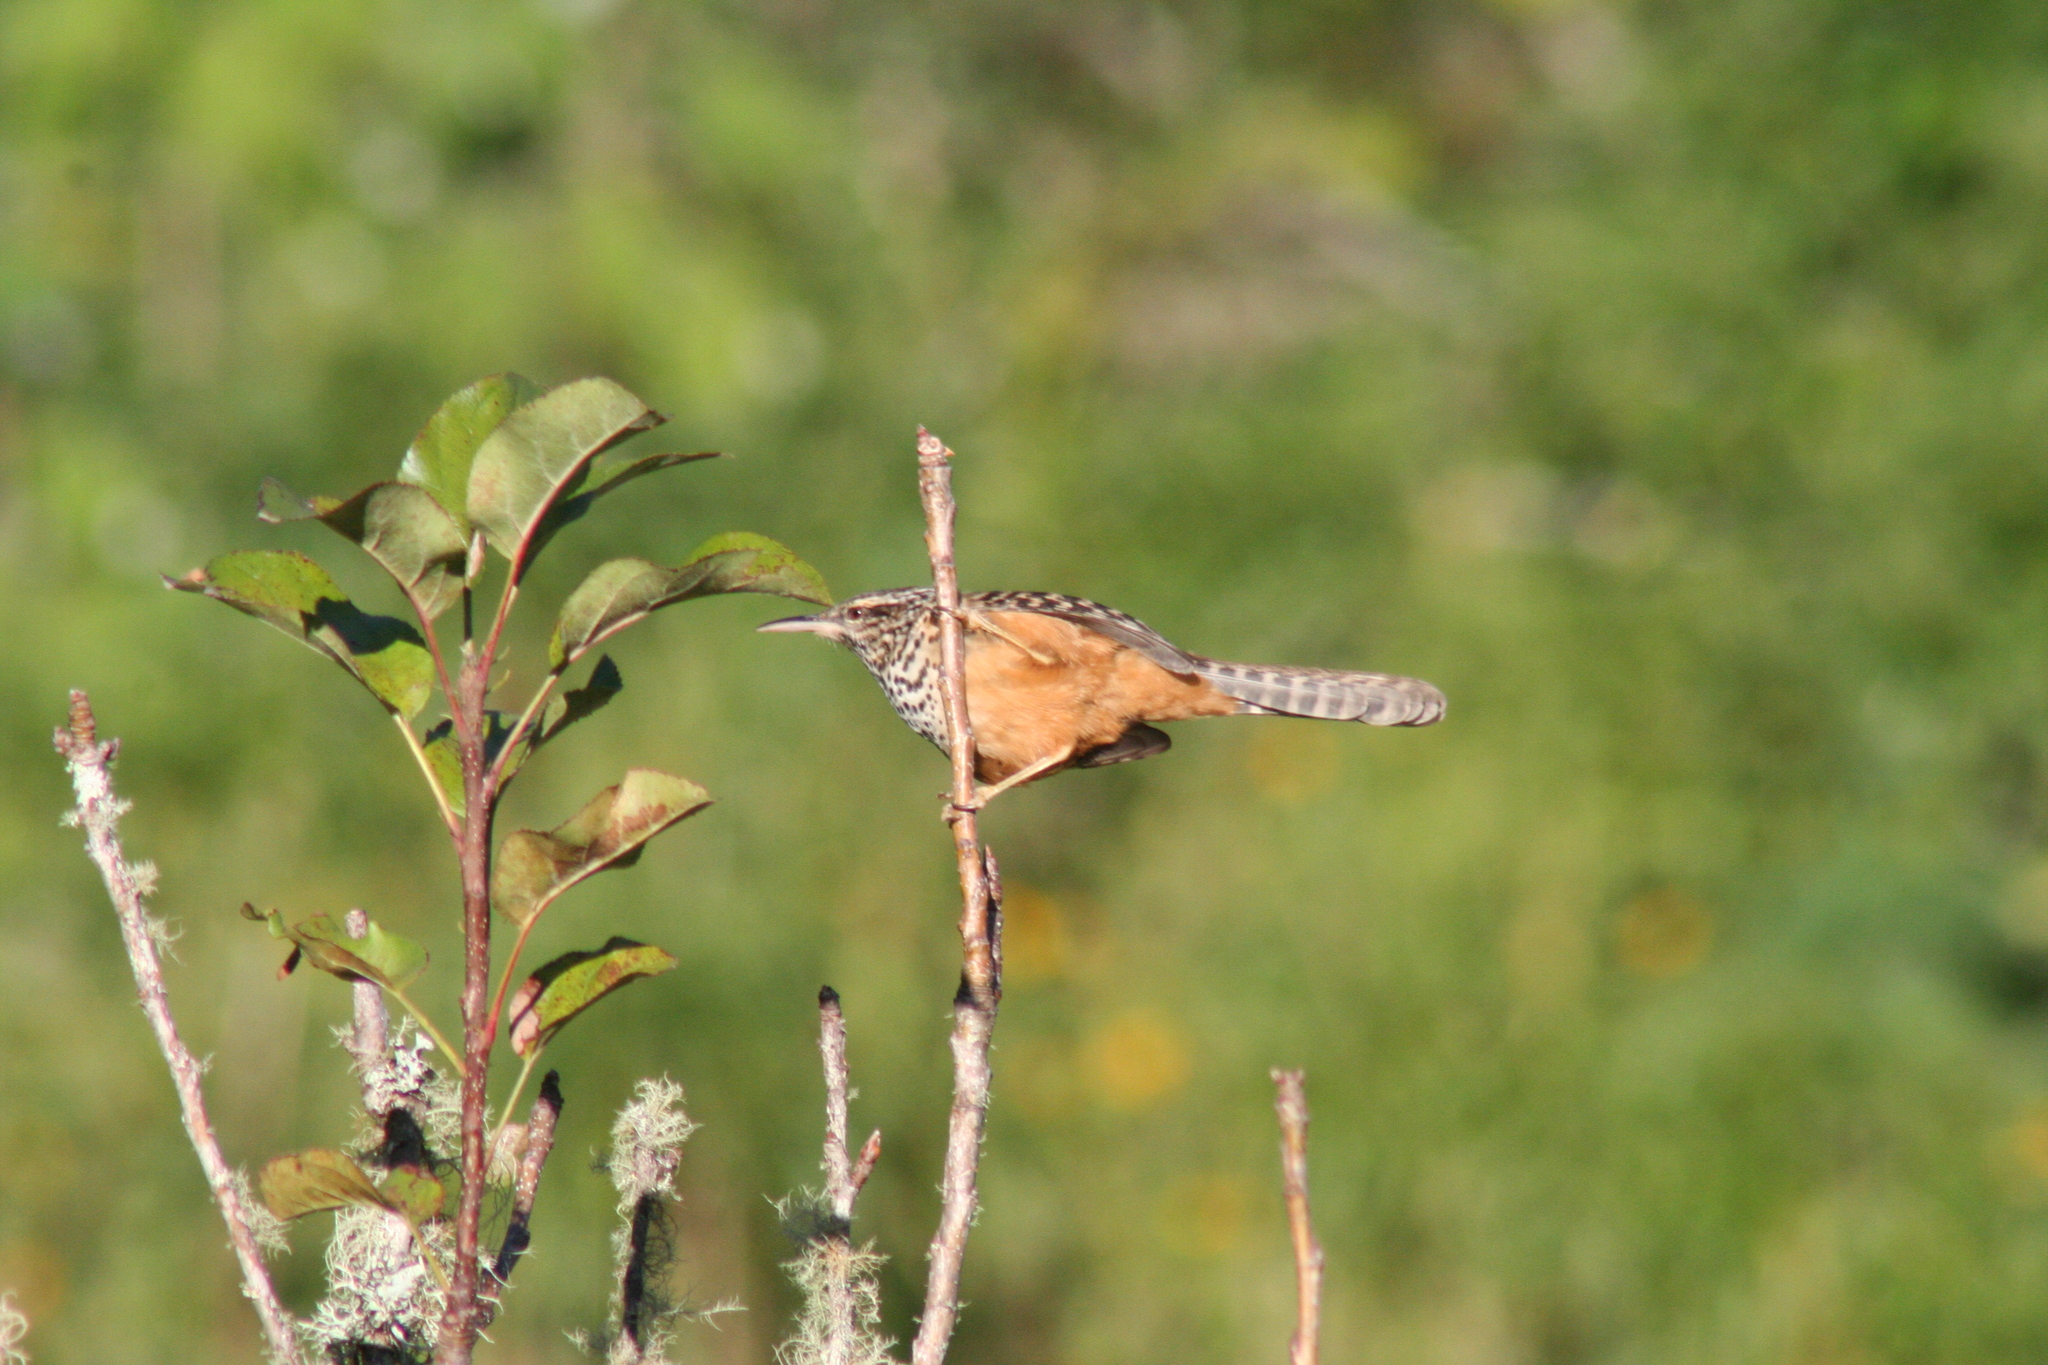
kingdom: Animalia
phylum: Chordata
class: Aves
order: Passeriformes
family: Troglodytidae
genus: Campylorhynchus
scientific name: Campylorhynchus zonatus
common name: Band-backed wren
